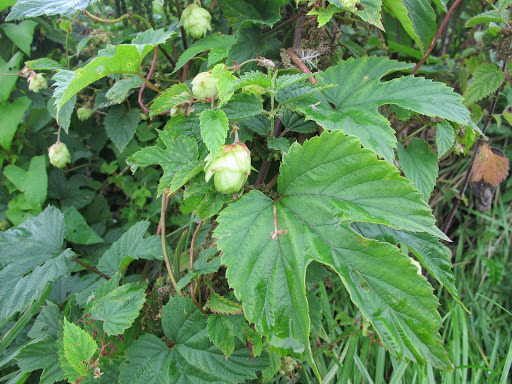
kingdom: Plantae
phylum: Tracheophyta
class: Magnoliopsida
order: Rosales
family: Cannabaceae
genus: Humulus
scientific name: Humulus lupulus
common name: Hop
